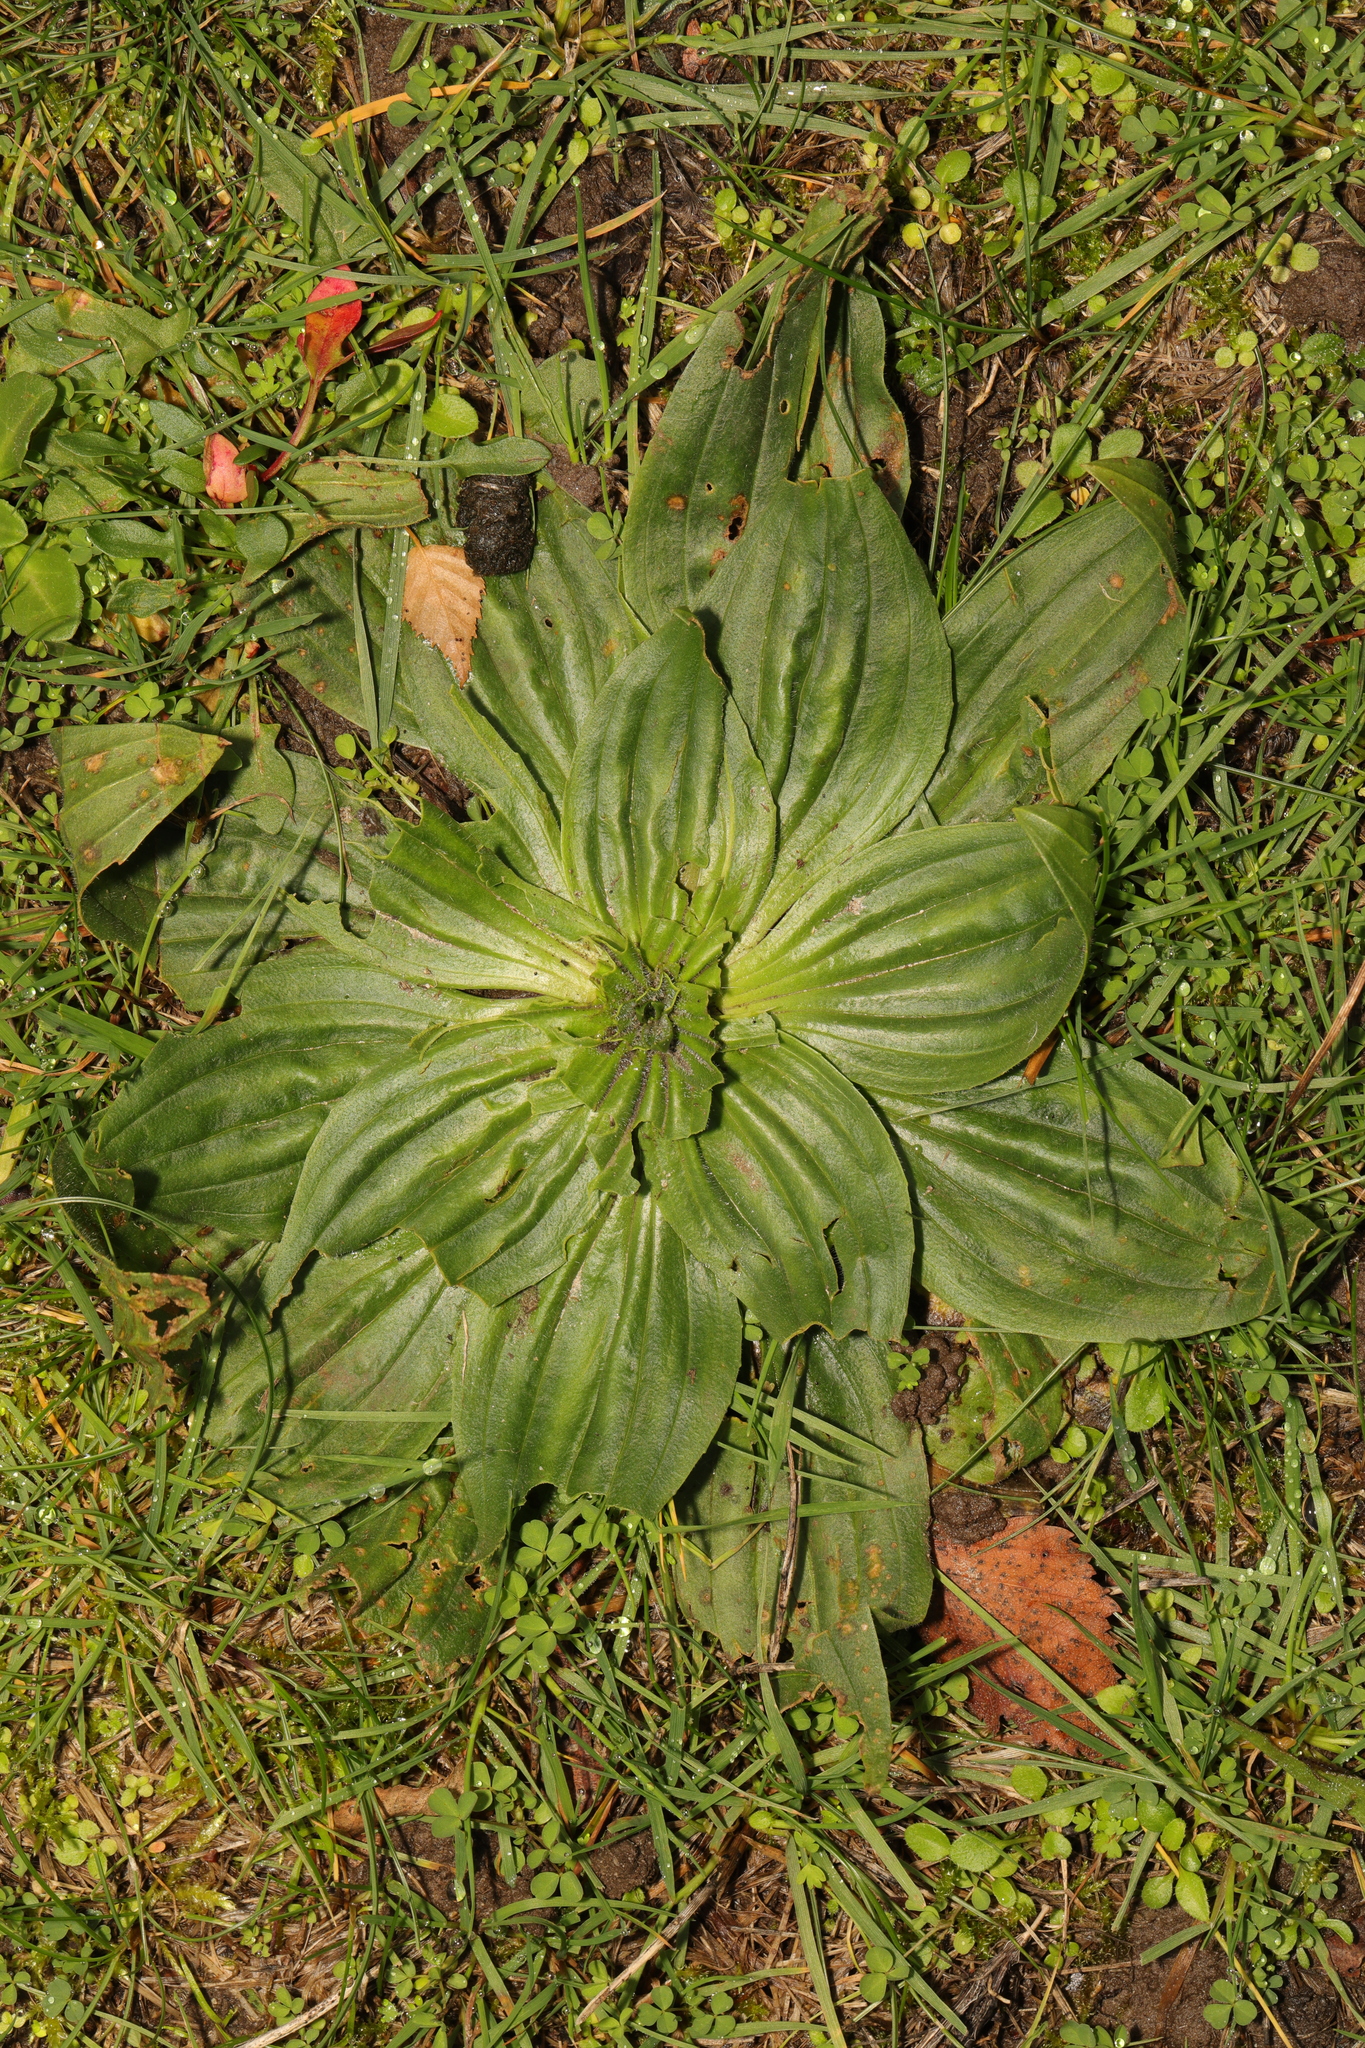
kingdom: Plantae
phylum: Tracheophyta
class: Magnoliopsida
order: Lamiales
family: Plantaginaceae
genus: Plantago
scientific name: Plantago media
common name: Hoary plantain
